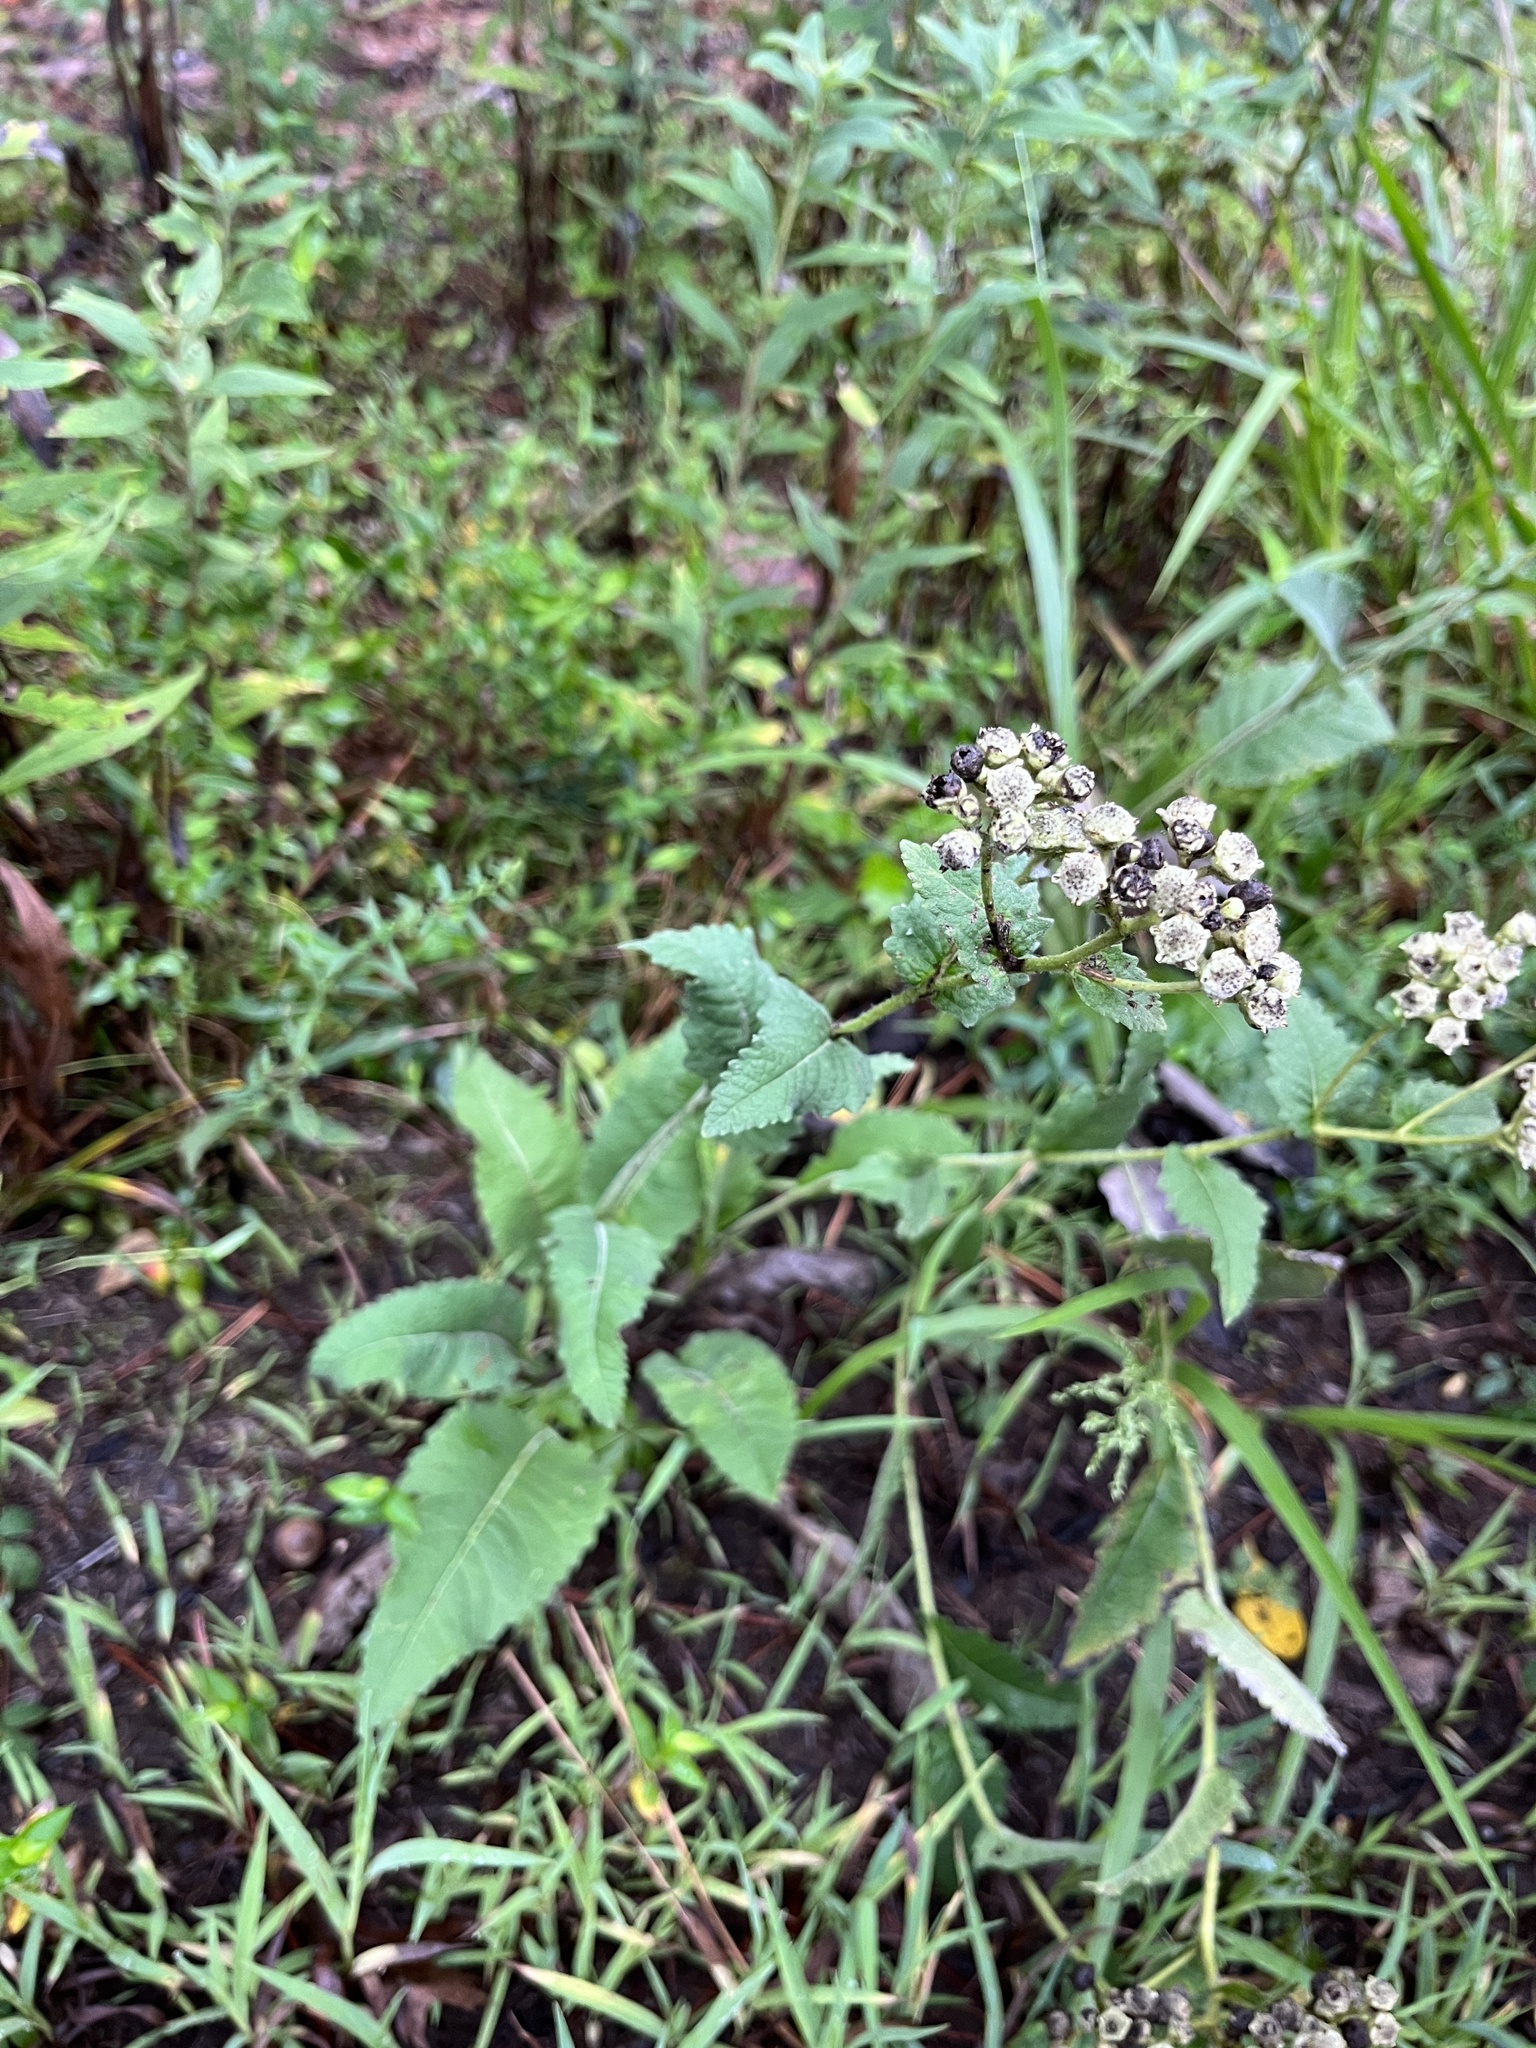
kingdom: Plantae
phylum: Tracheophyta
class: Magnoliopsida
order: Asterales
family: Asteraceae
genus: Parthenium
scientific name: Parthenium auriculatum
